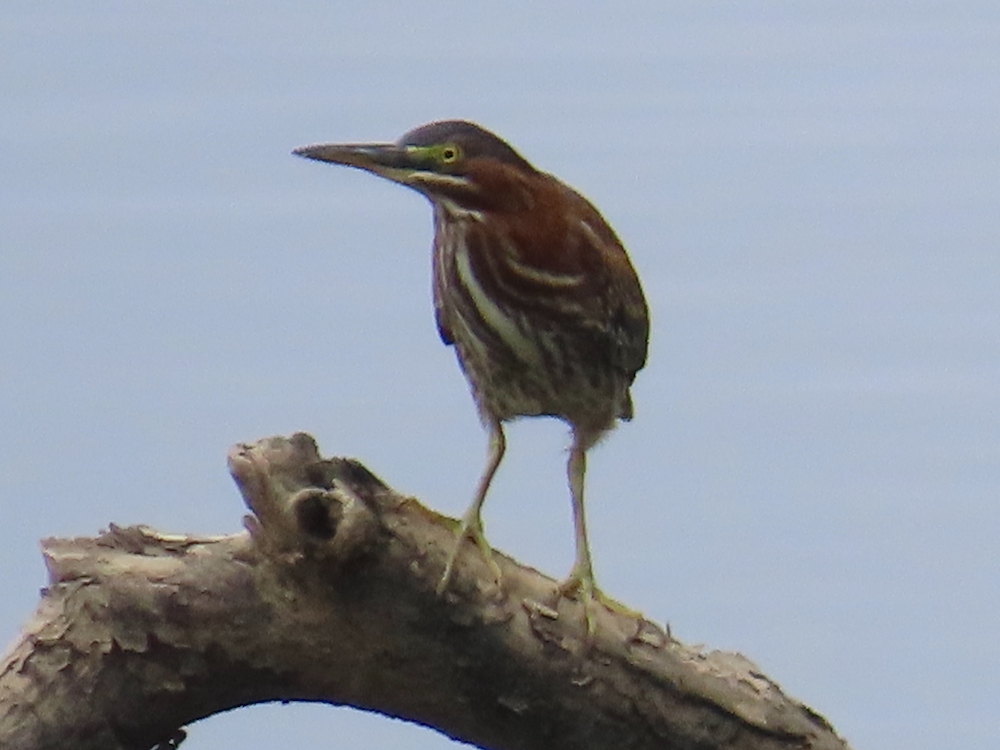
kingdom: Animalia
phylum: Chordata
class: Aves
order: Pelecaniformes
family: Ardeidae
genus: Butorides
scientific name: Butorides virescens
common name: Green heron
